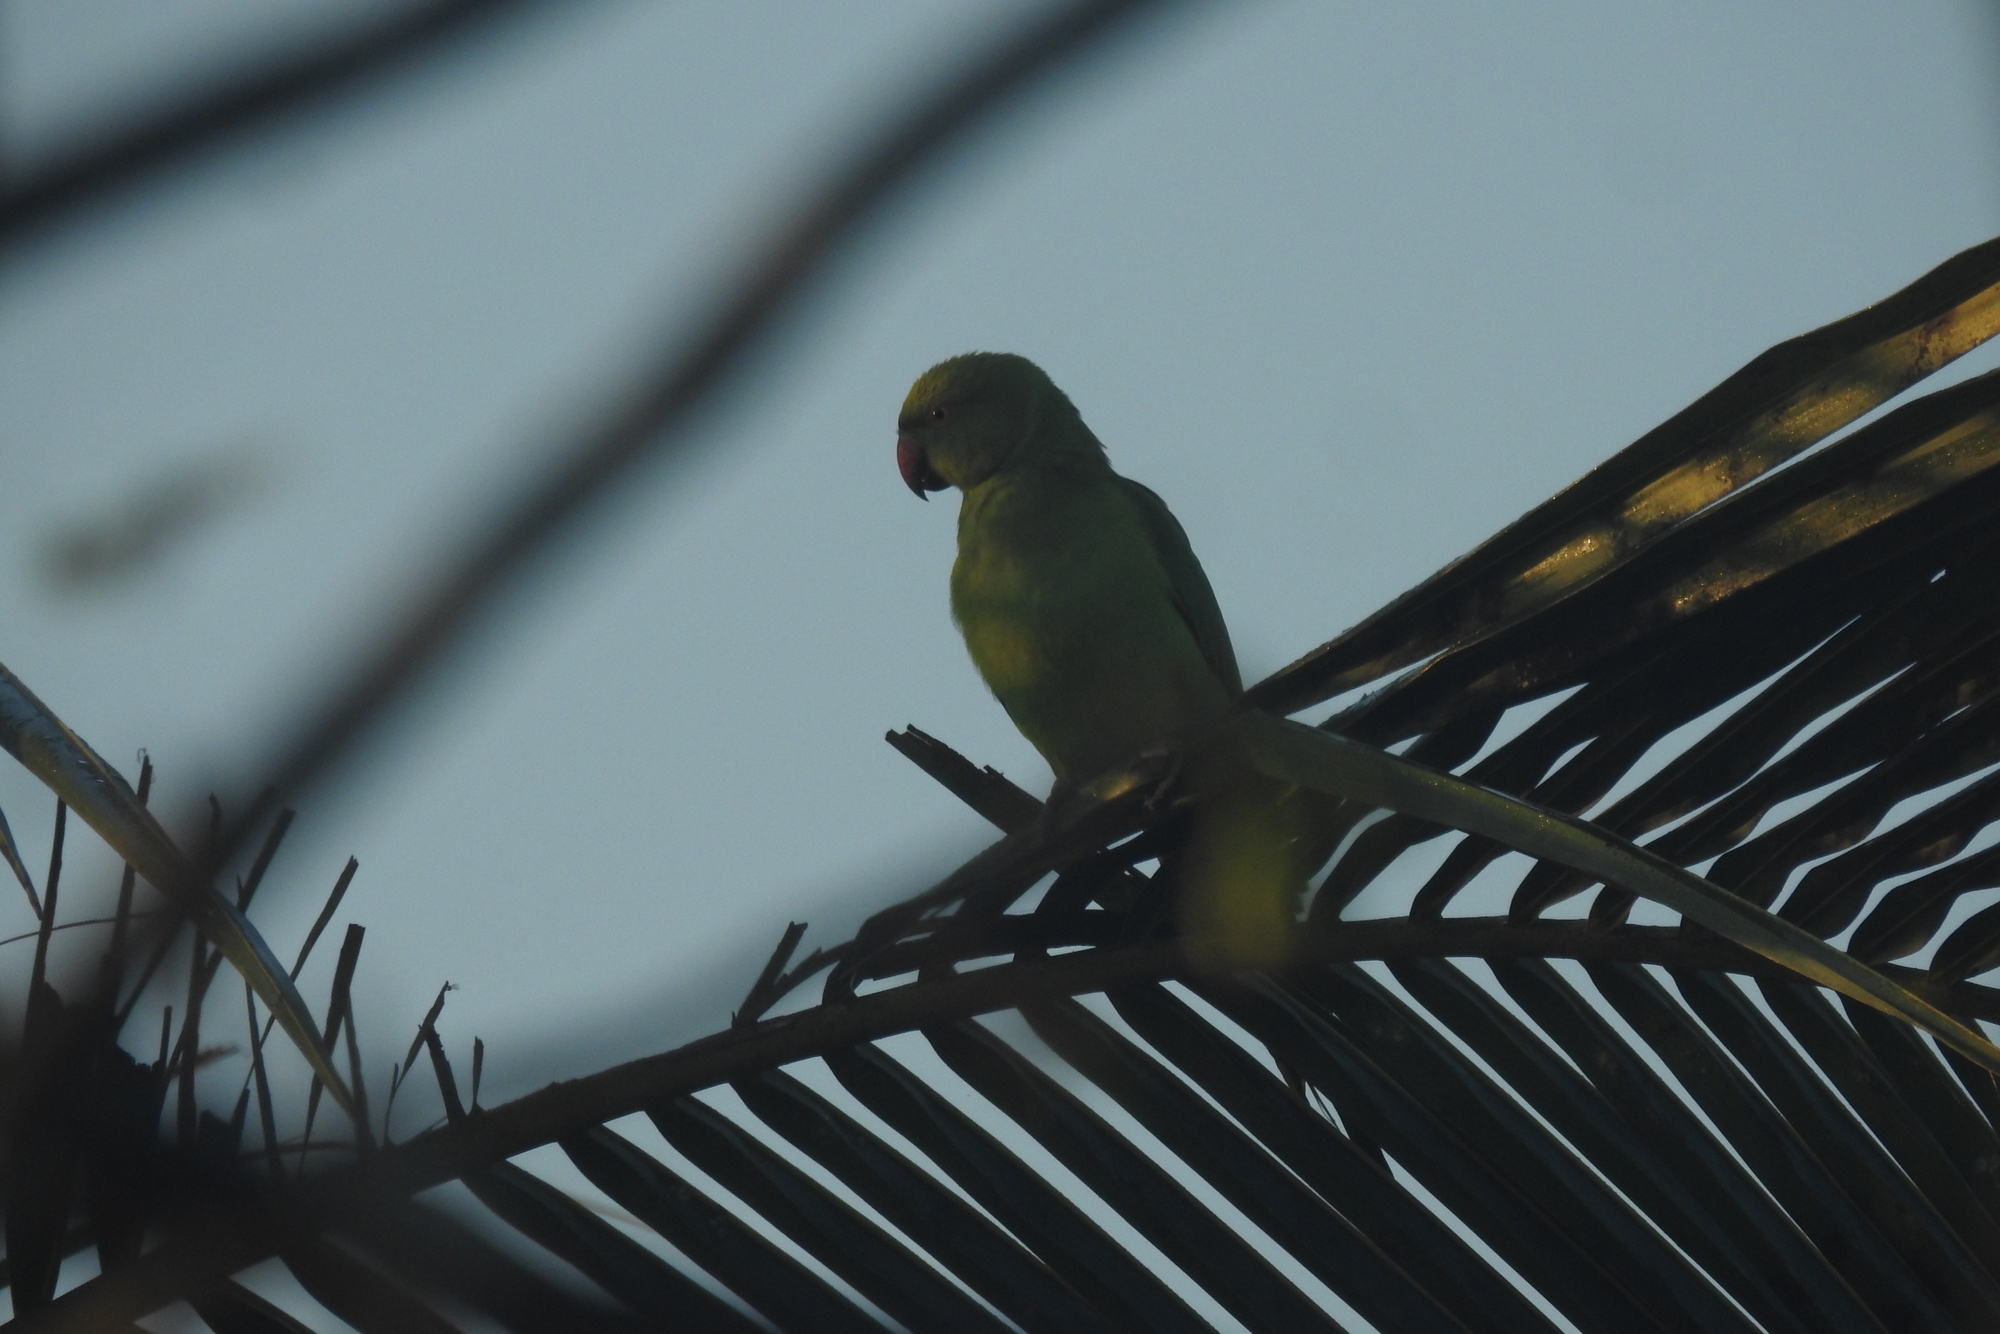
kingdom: Animalia
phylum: Chordata
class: Aves
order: Psittaciformes
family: Psittacidae
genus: Psittacula
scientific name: Psittacula krameri
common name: Rose-ringed parakeet
